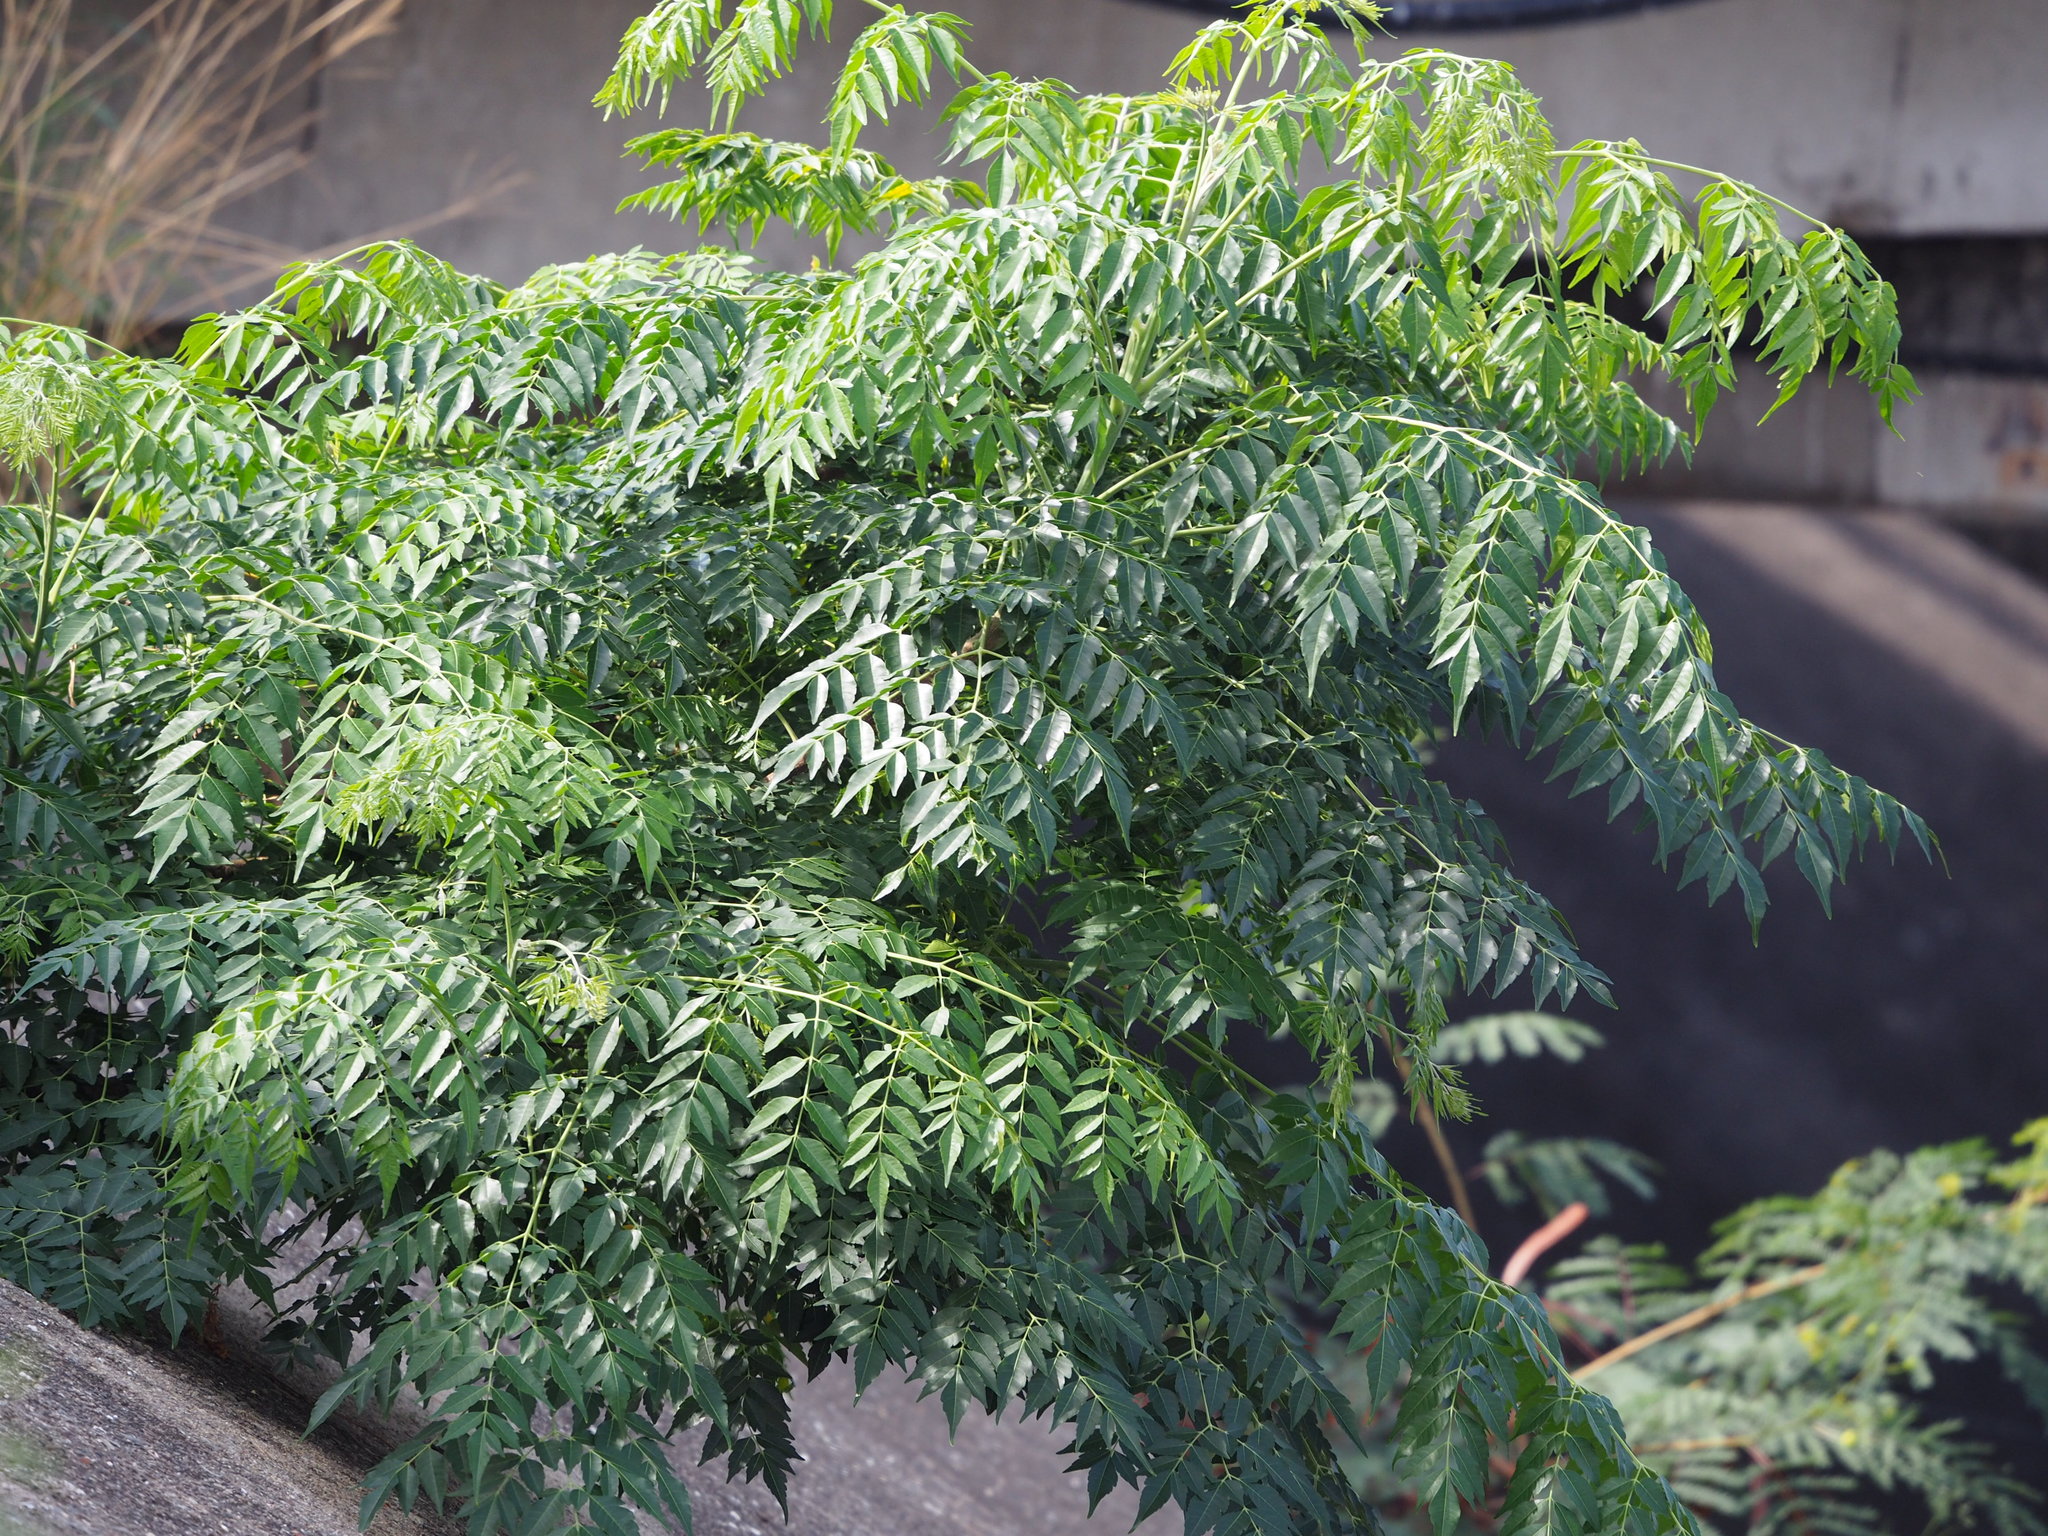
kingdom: Plantae
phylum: Tracheophyta
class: Magnoliopsida
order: Sapindales
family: Meliaceae
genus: Melia
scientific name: Melia azedarach
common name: Chinaberrytree
